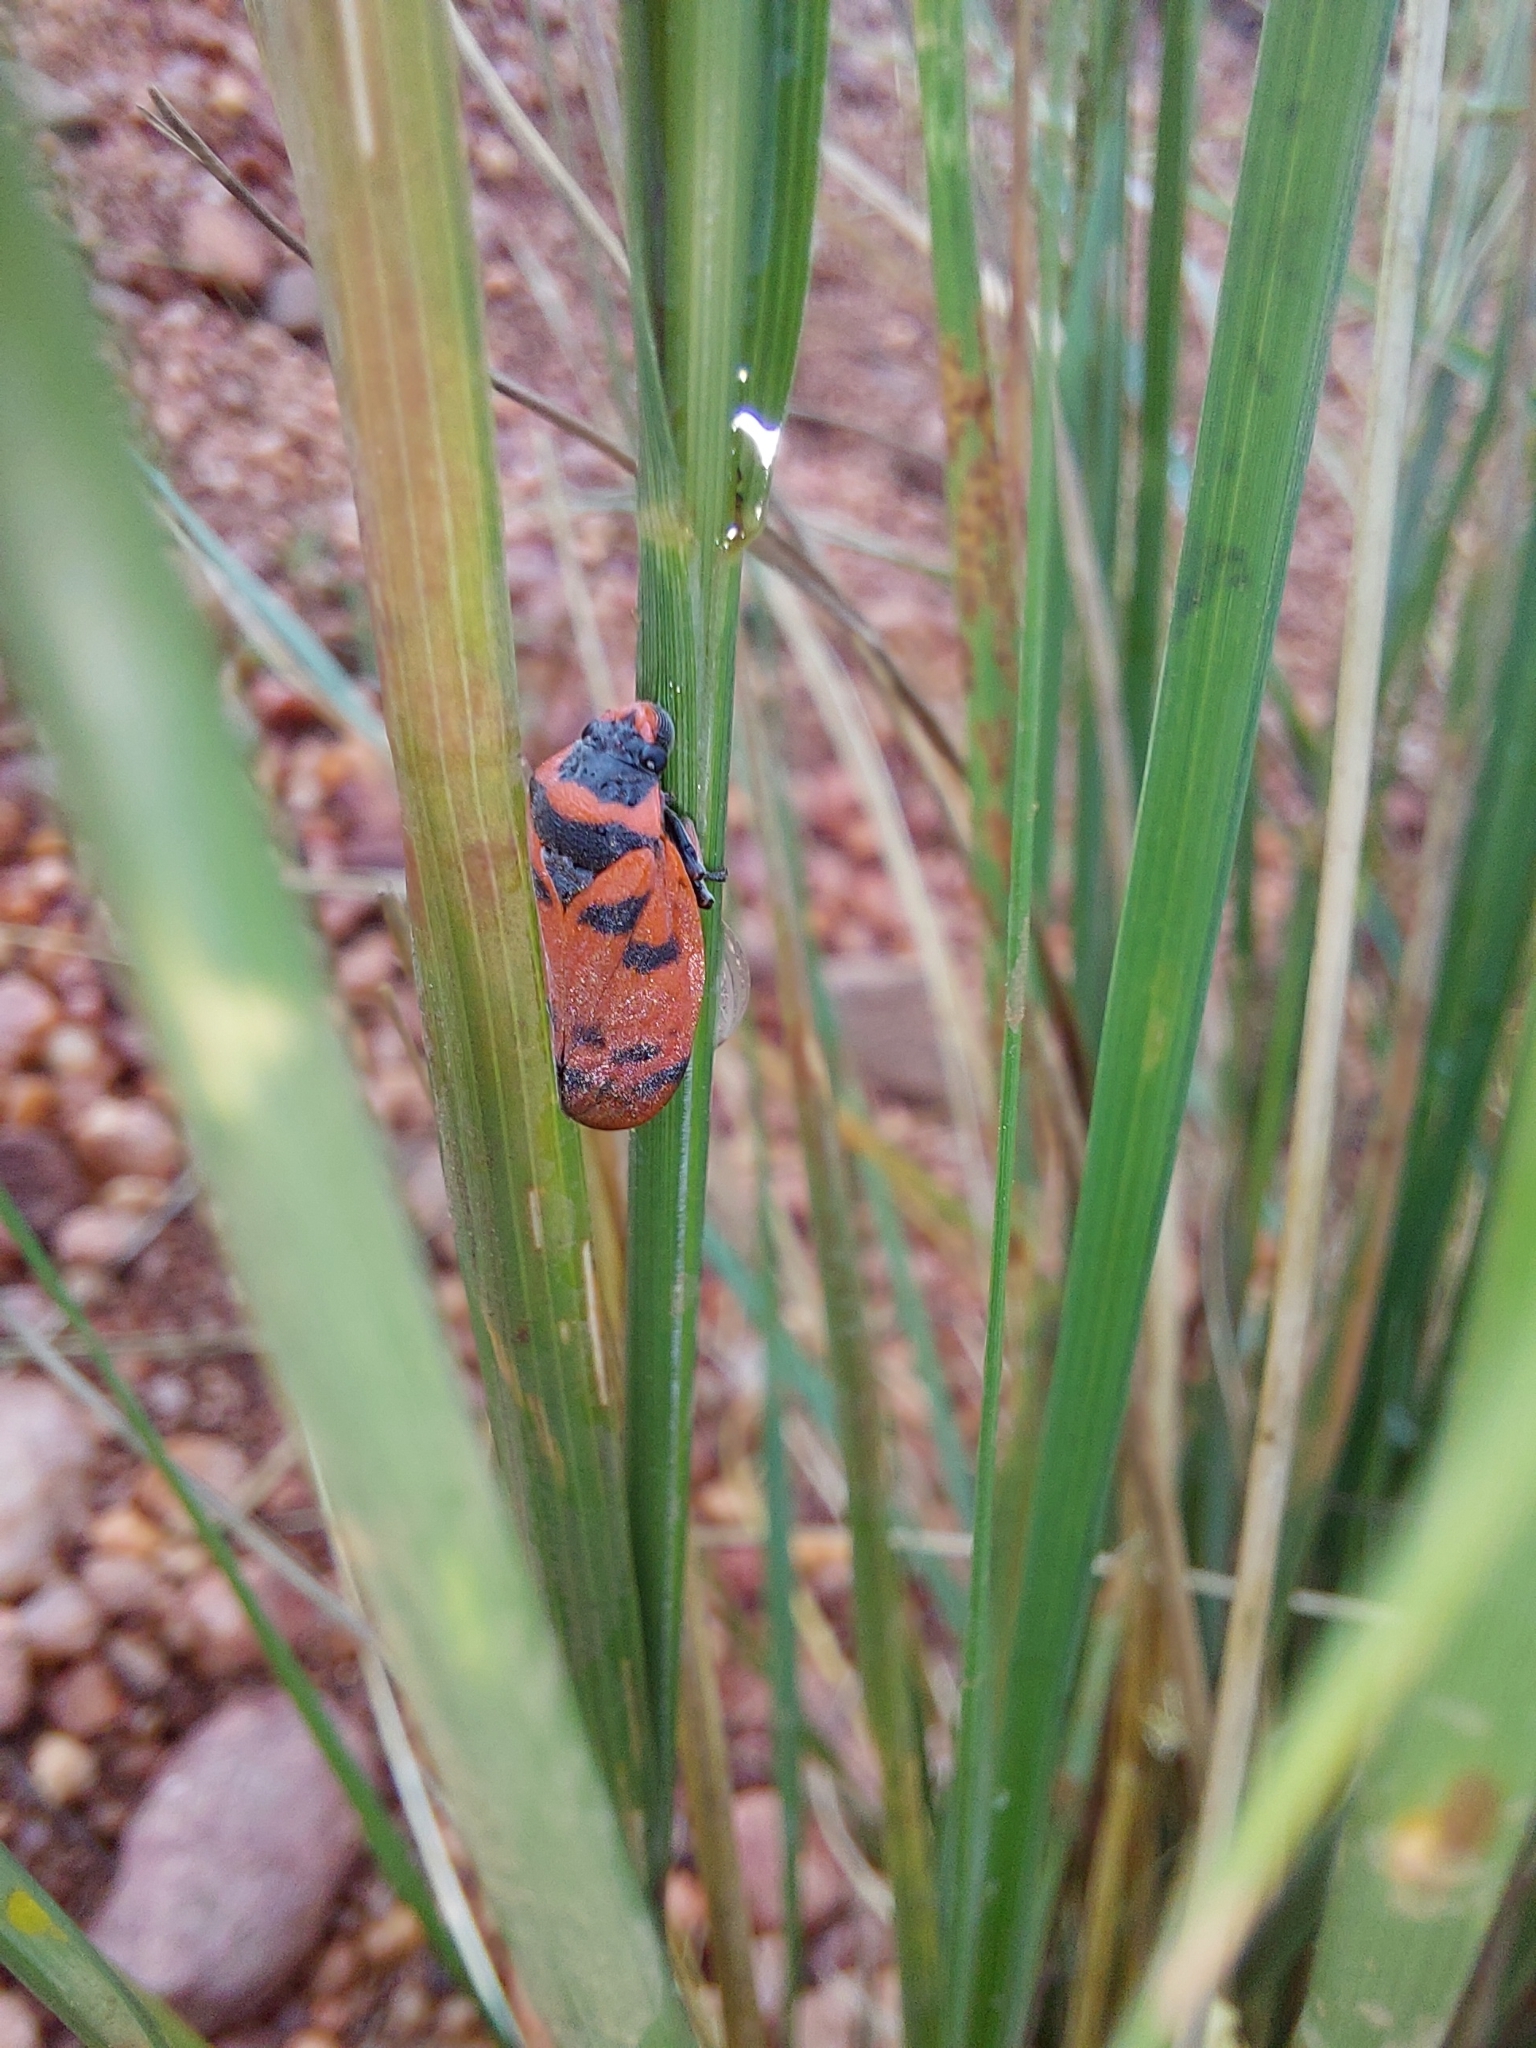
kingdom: Animalia
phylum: Arthropoda
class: Insecta
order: Hemiptera
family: Cercopidae
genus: Locris
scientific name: Locris arithmetica
